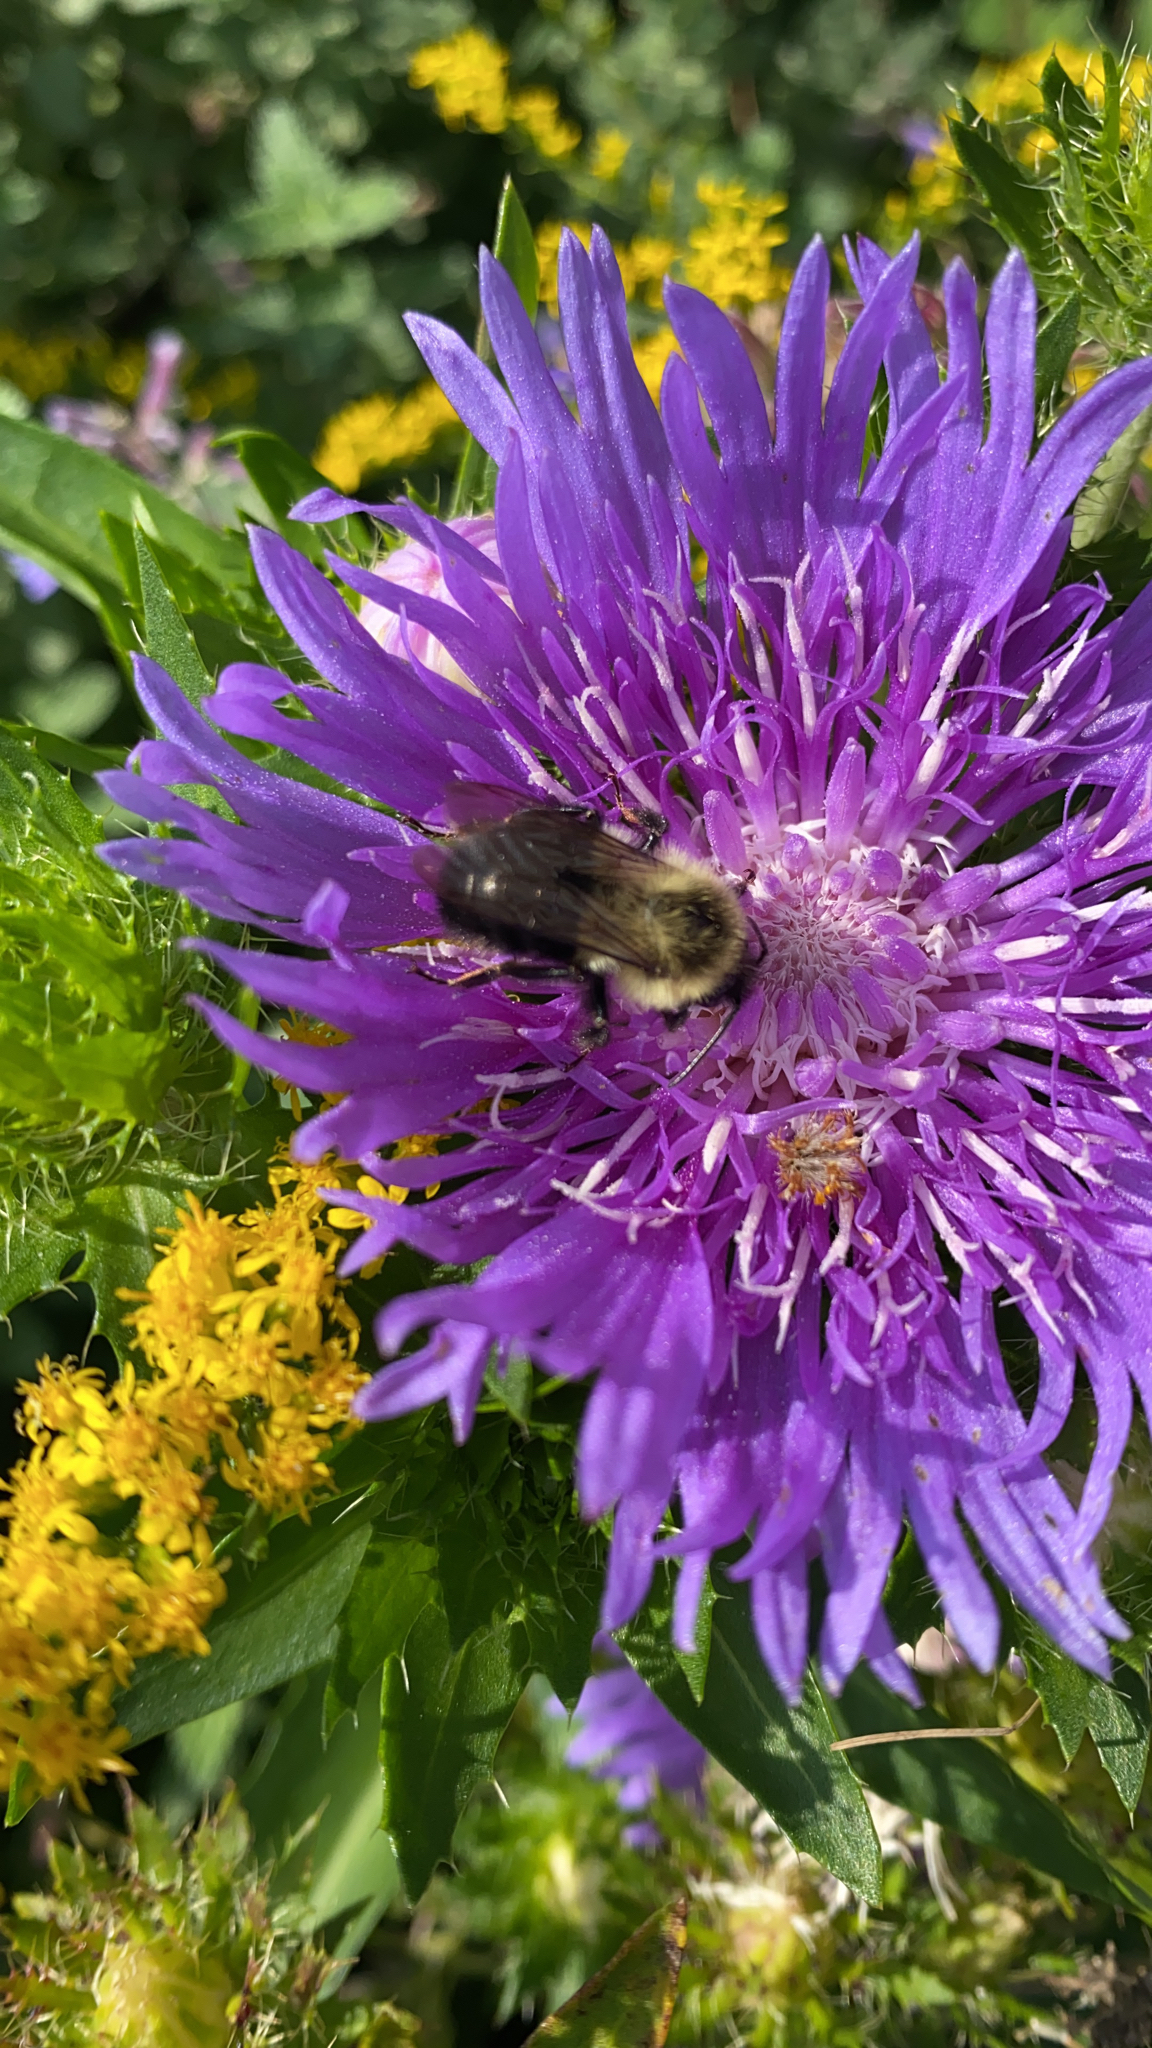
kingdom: Animalia
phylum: Arthropoda
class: Insecta
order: Hymenoptera
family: Apidae
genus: Bombus
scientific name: Bombus impatiens
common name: Common eastern bumble bee
